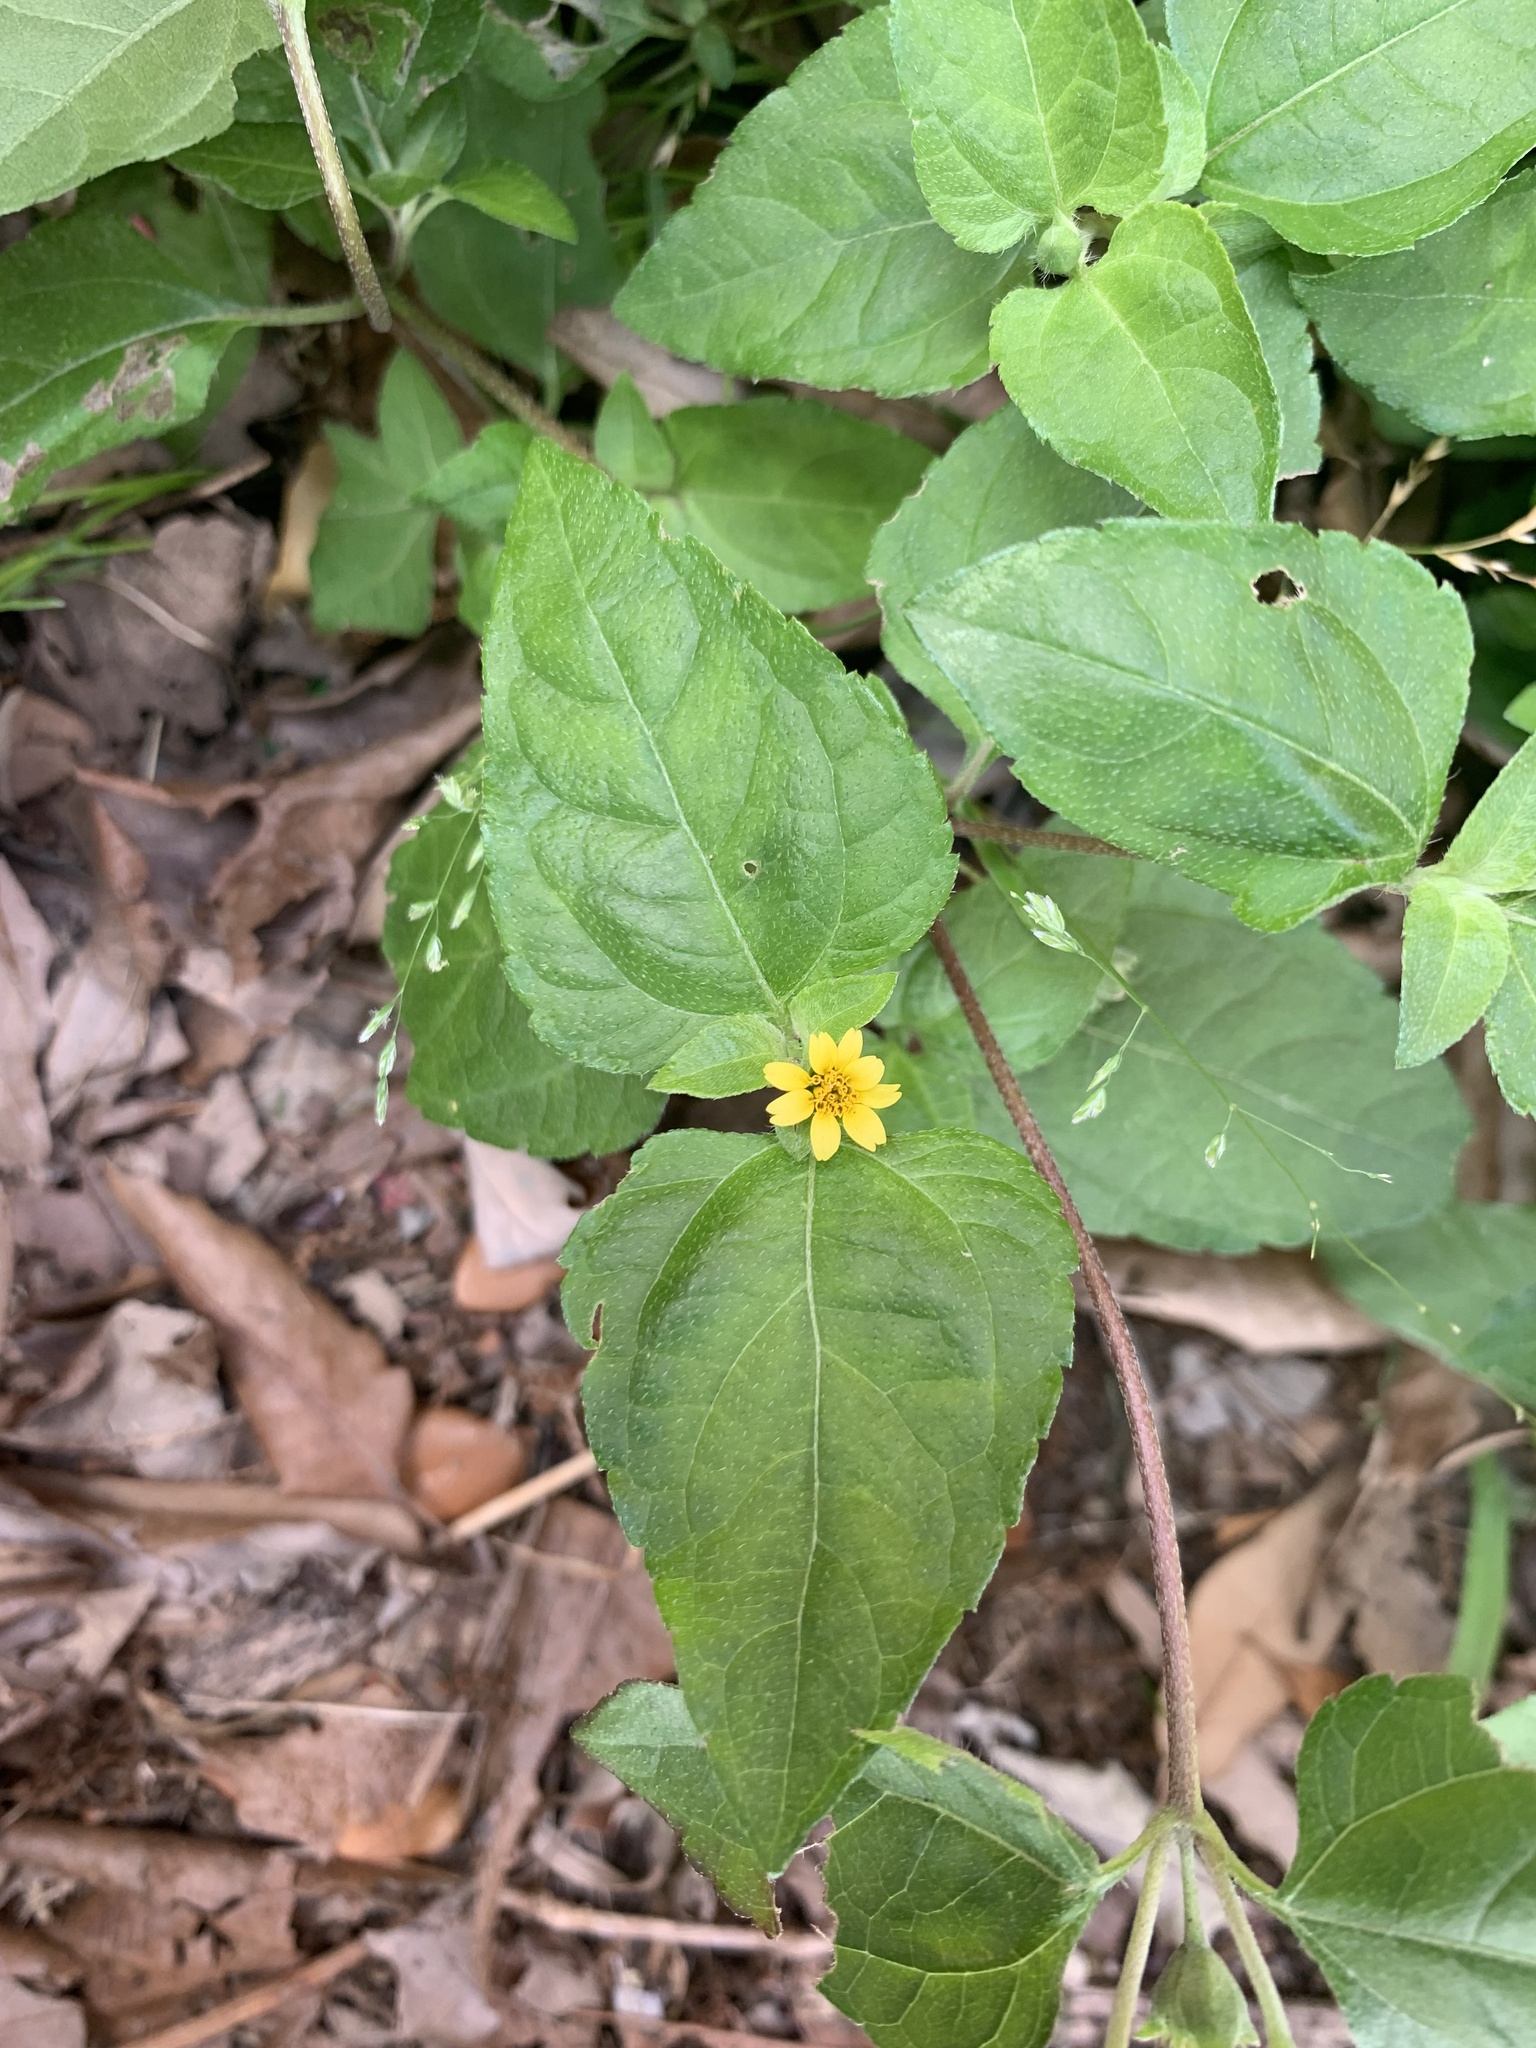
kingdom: Plantae
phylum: Tracheophyta
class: Magnoliopsida
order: Asterales
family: Asteraceae
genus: Calyptocarpus
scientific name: Calyptocarpus vialis
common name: Straggler daisy
